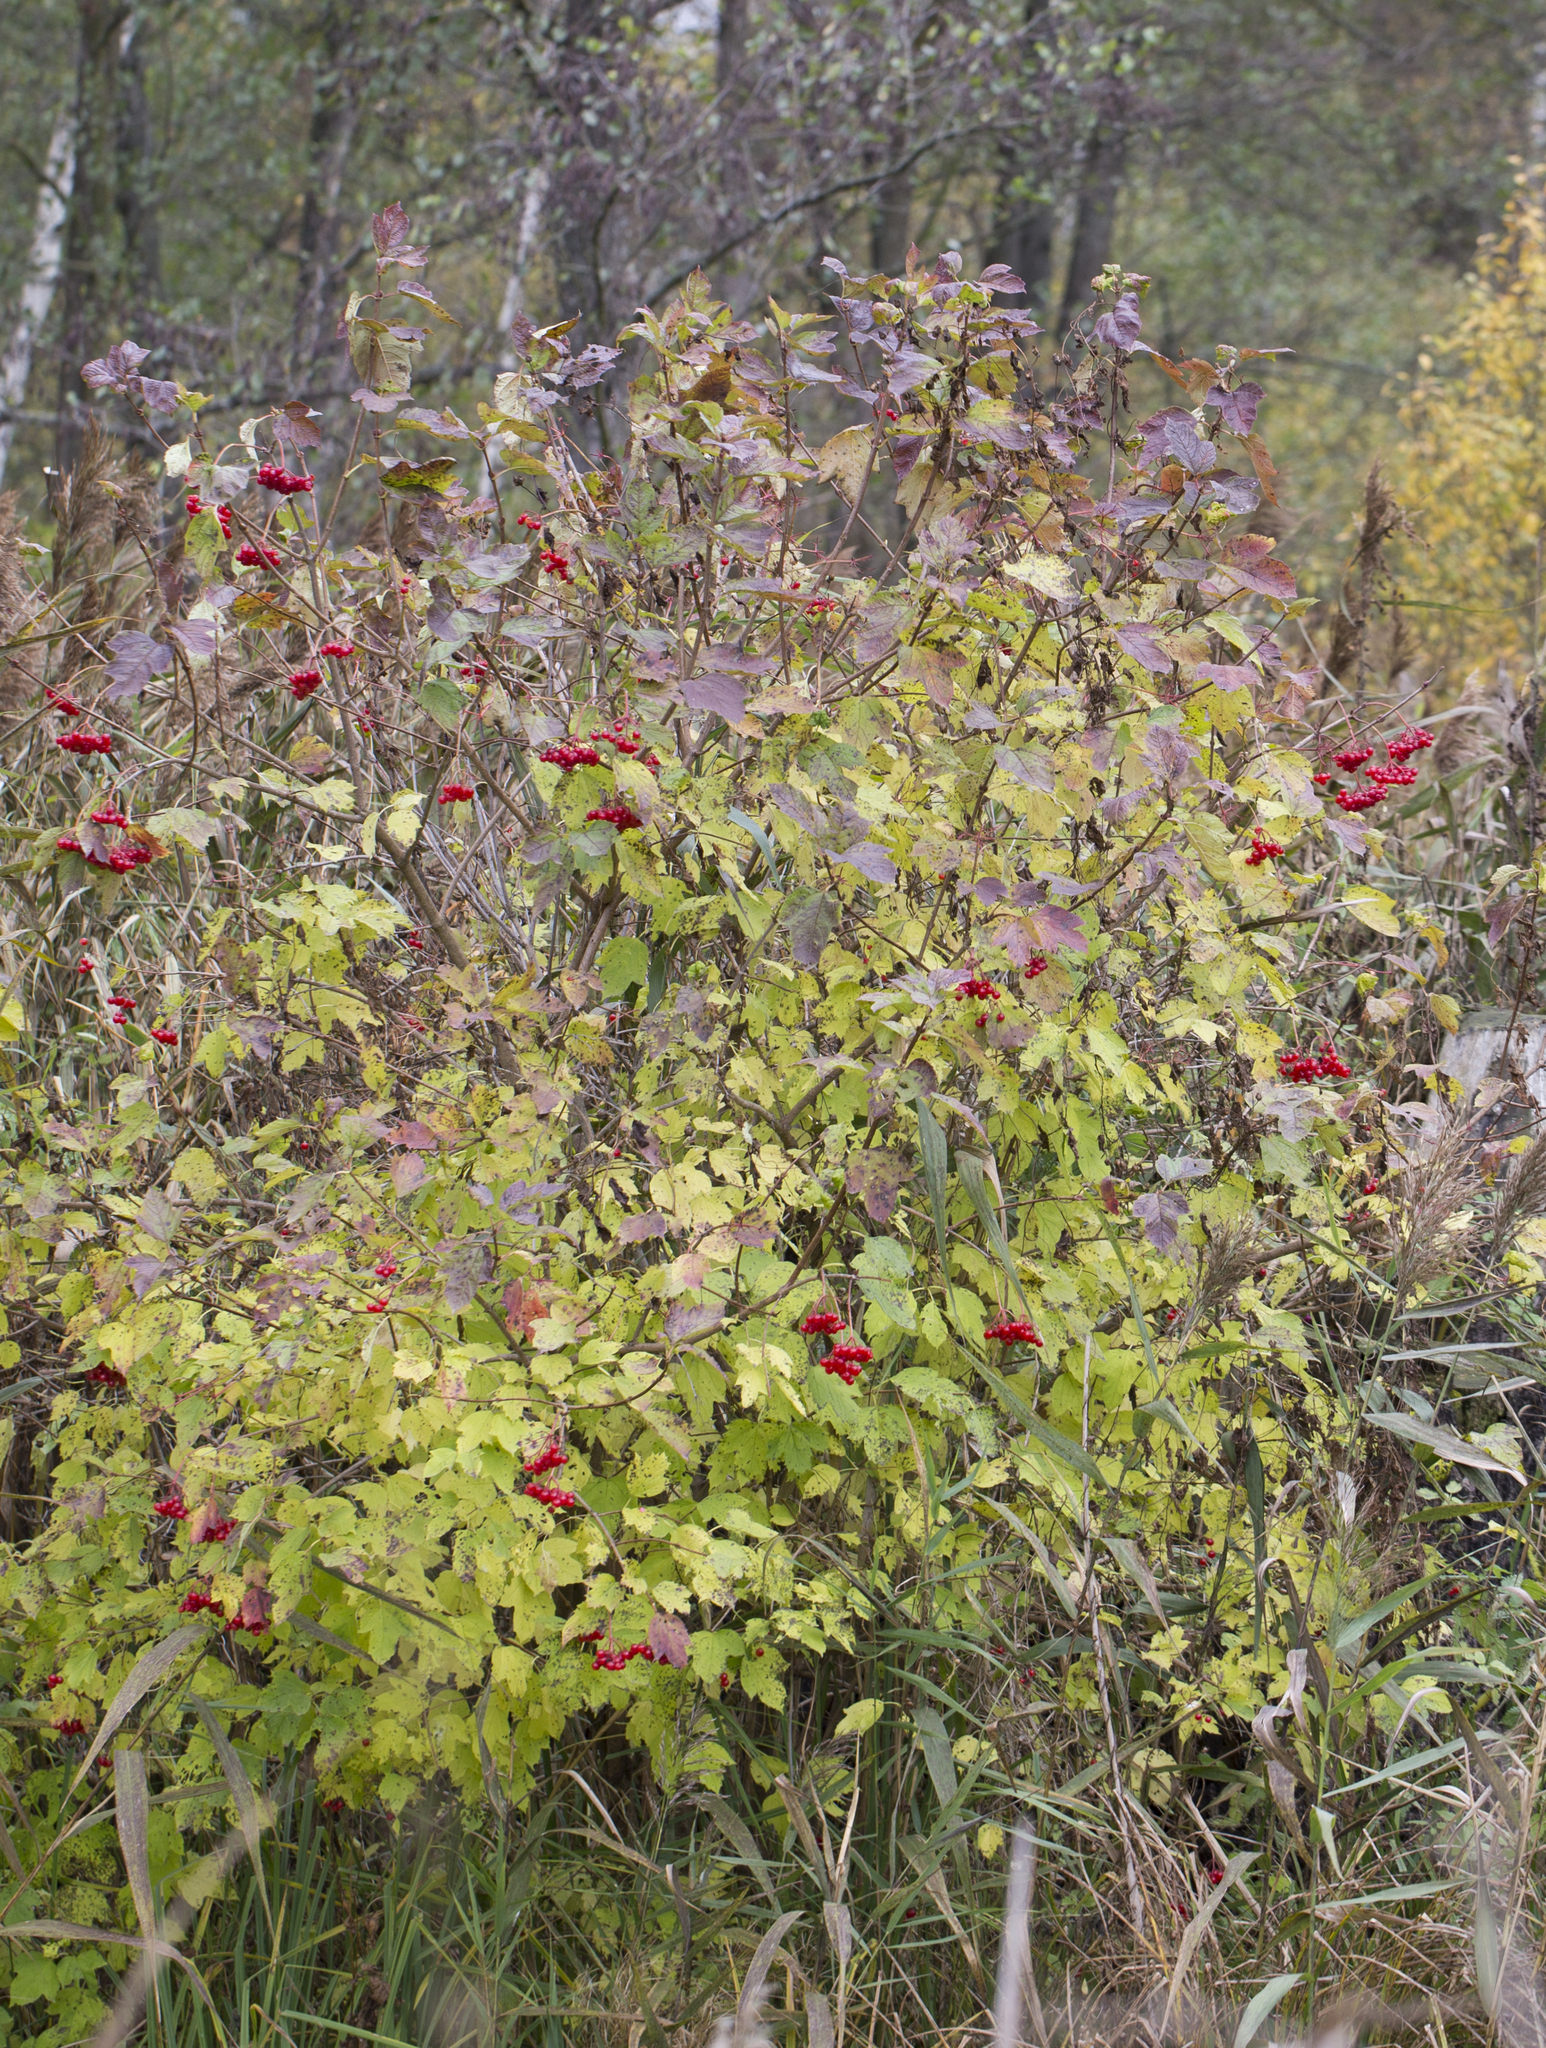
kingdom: Plantae
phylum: Tracheophyta
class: Magnoliopsida
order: Dipsacales
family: Viburnaceae
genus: Viburnum
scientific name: Viburnum opulus
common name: Guelder-rose
